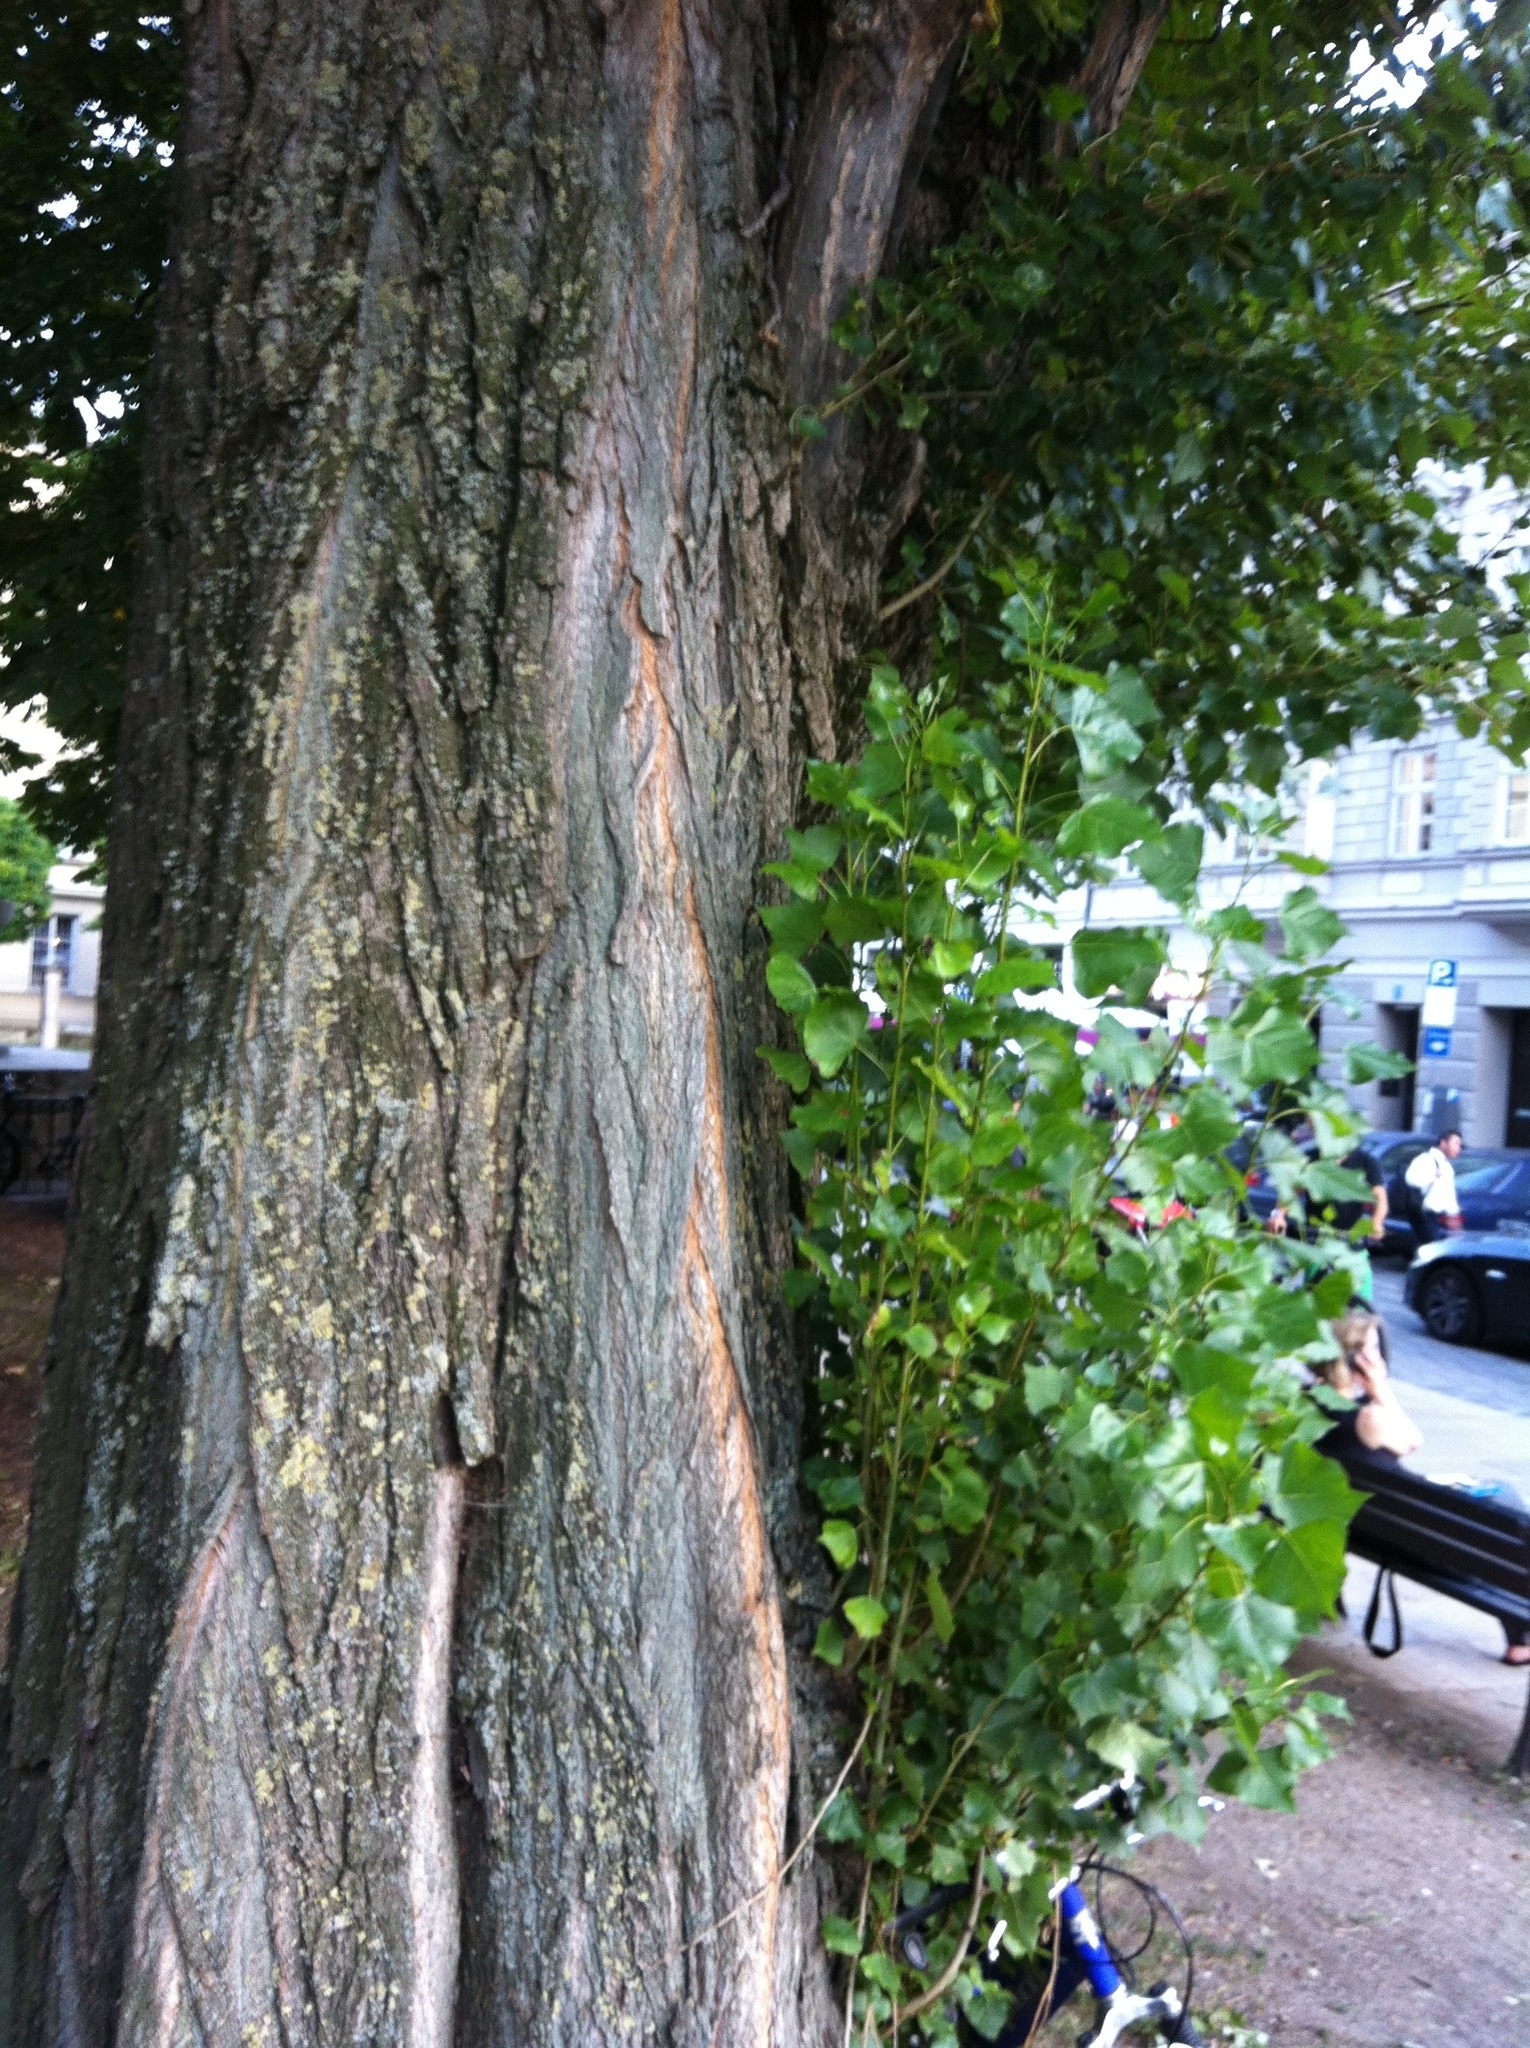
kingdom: Plantae
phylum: Tracheophyta
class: Magnoliopsida
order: Malpighiales
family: Salicaceae
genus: Populus
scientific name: Populus deltoides
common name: Eastern cottonwood
